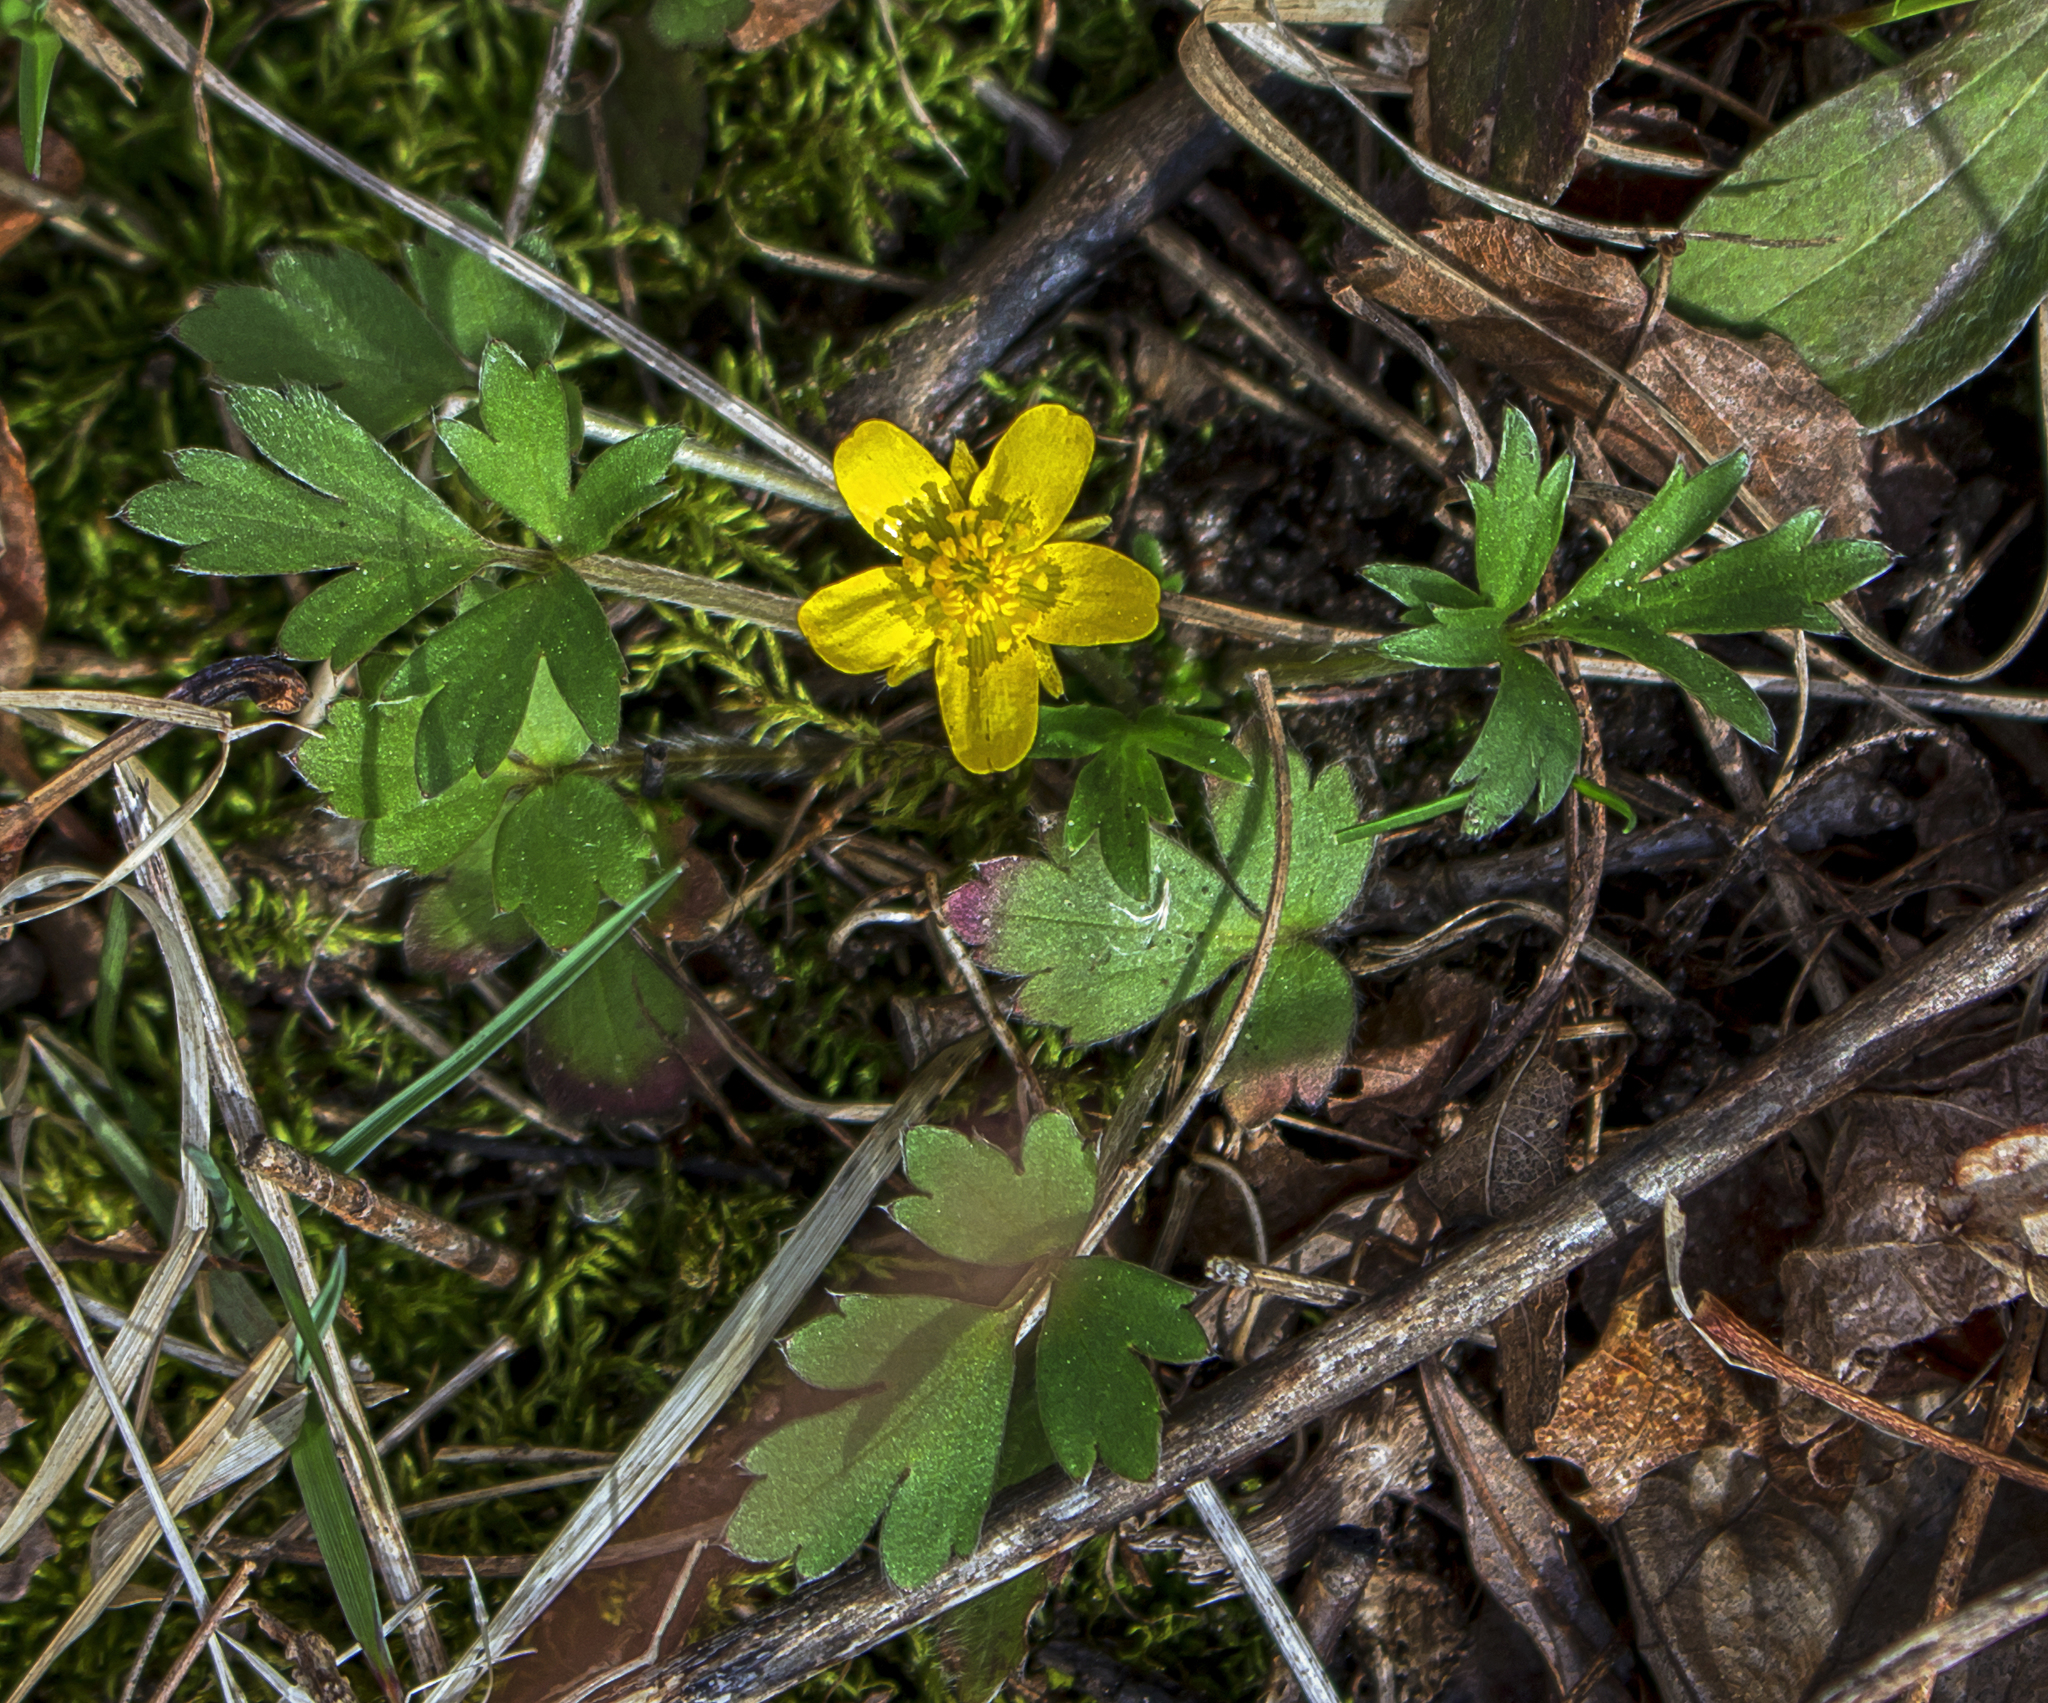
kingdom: Plantae
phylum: Tracheophyta
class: Magnoliopsida
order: Ranunculales
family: Ranunculaceae
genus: Ranunculus
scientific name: Ranunculus fascicularis
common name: Early buttercup
